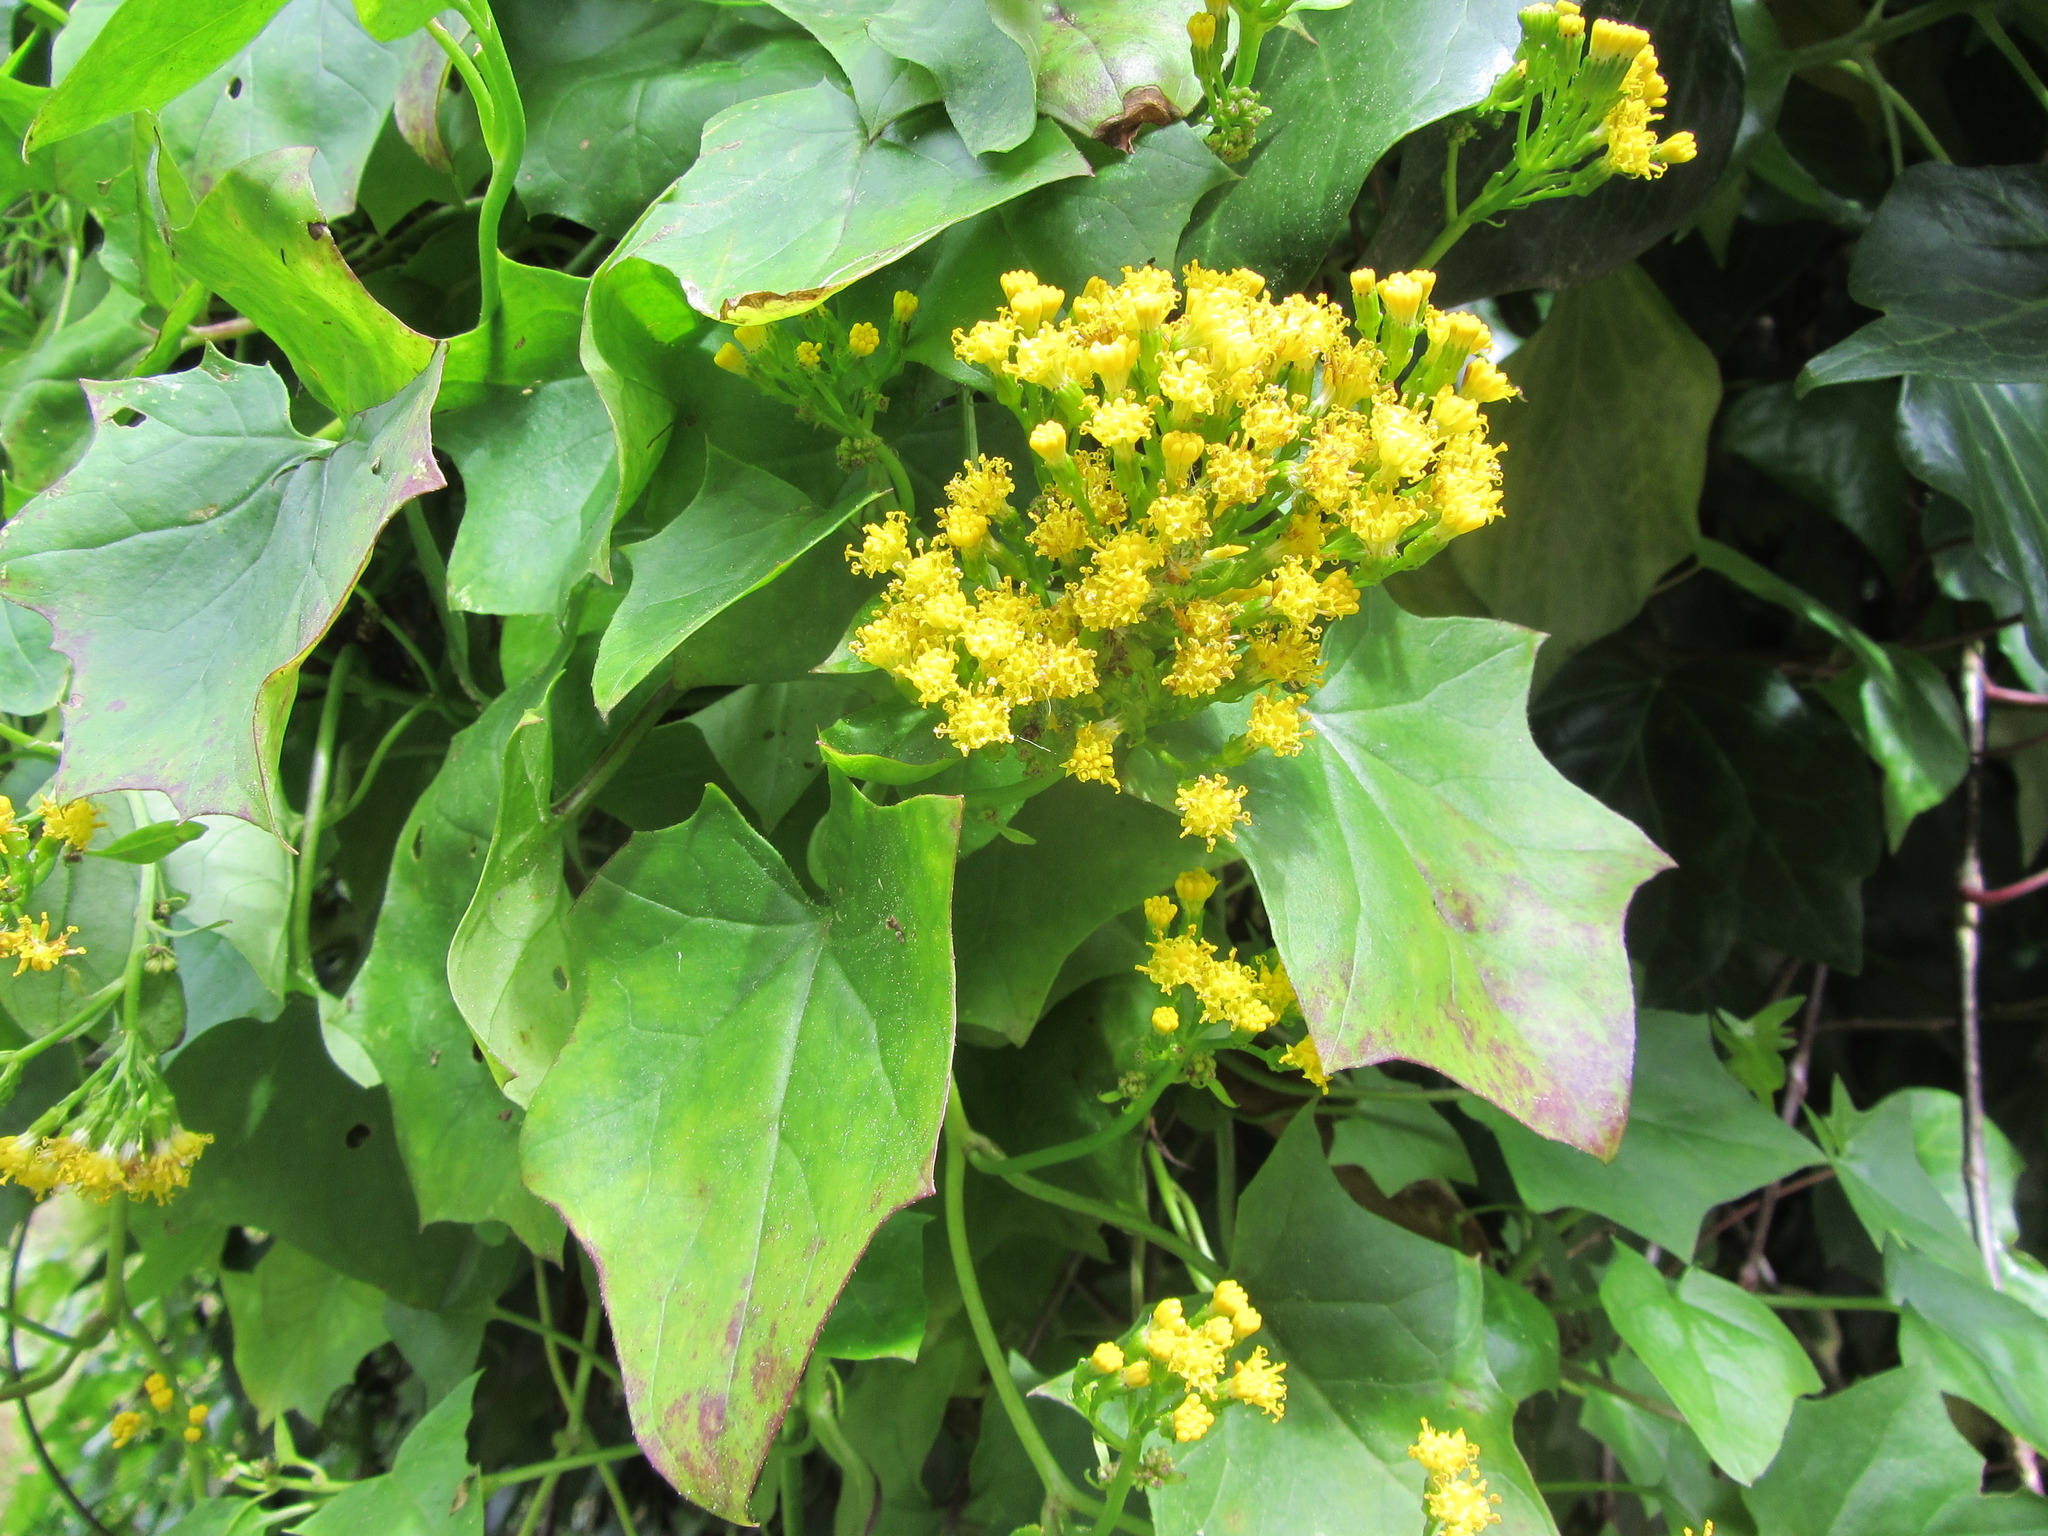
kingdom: Plantae
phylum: Tracheophyta
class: Magnoliopsida
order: Asterales
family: Asteraceae
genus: Delairea
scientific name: Delairea odorata
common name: Cape-ivy
